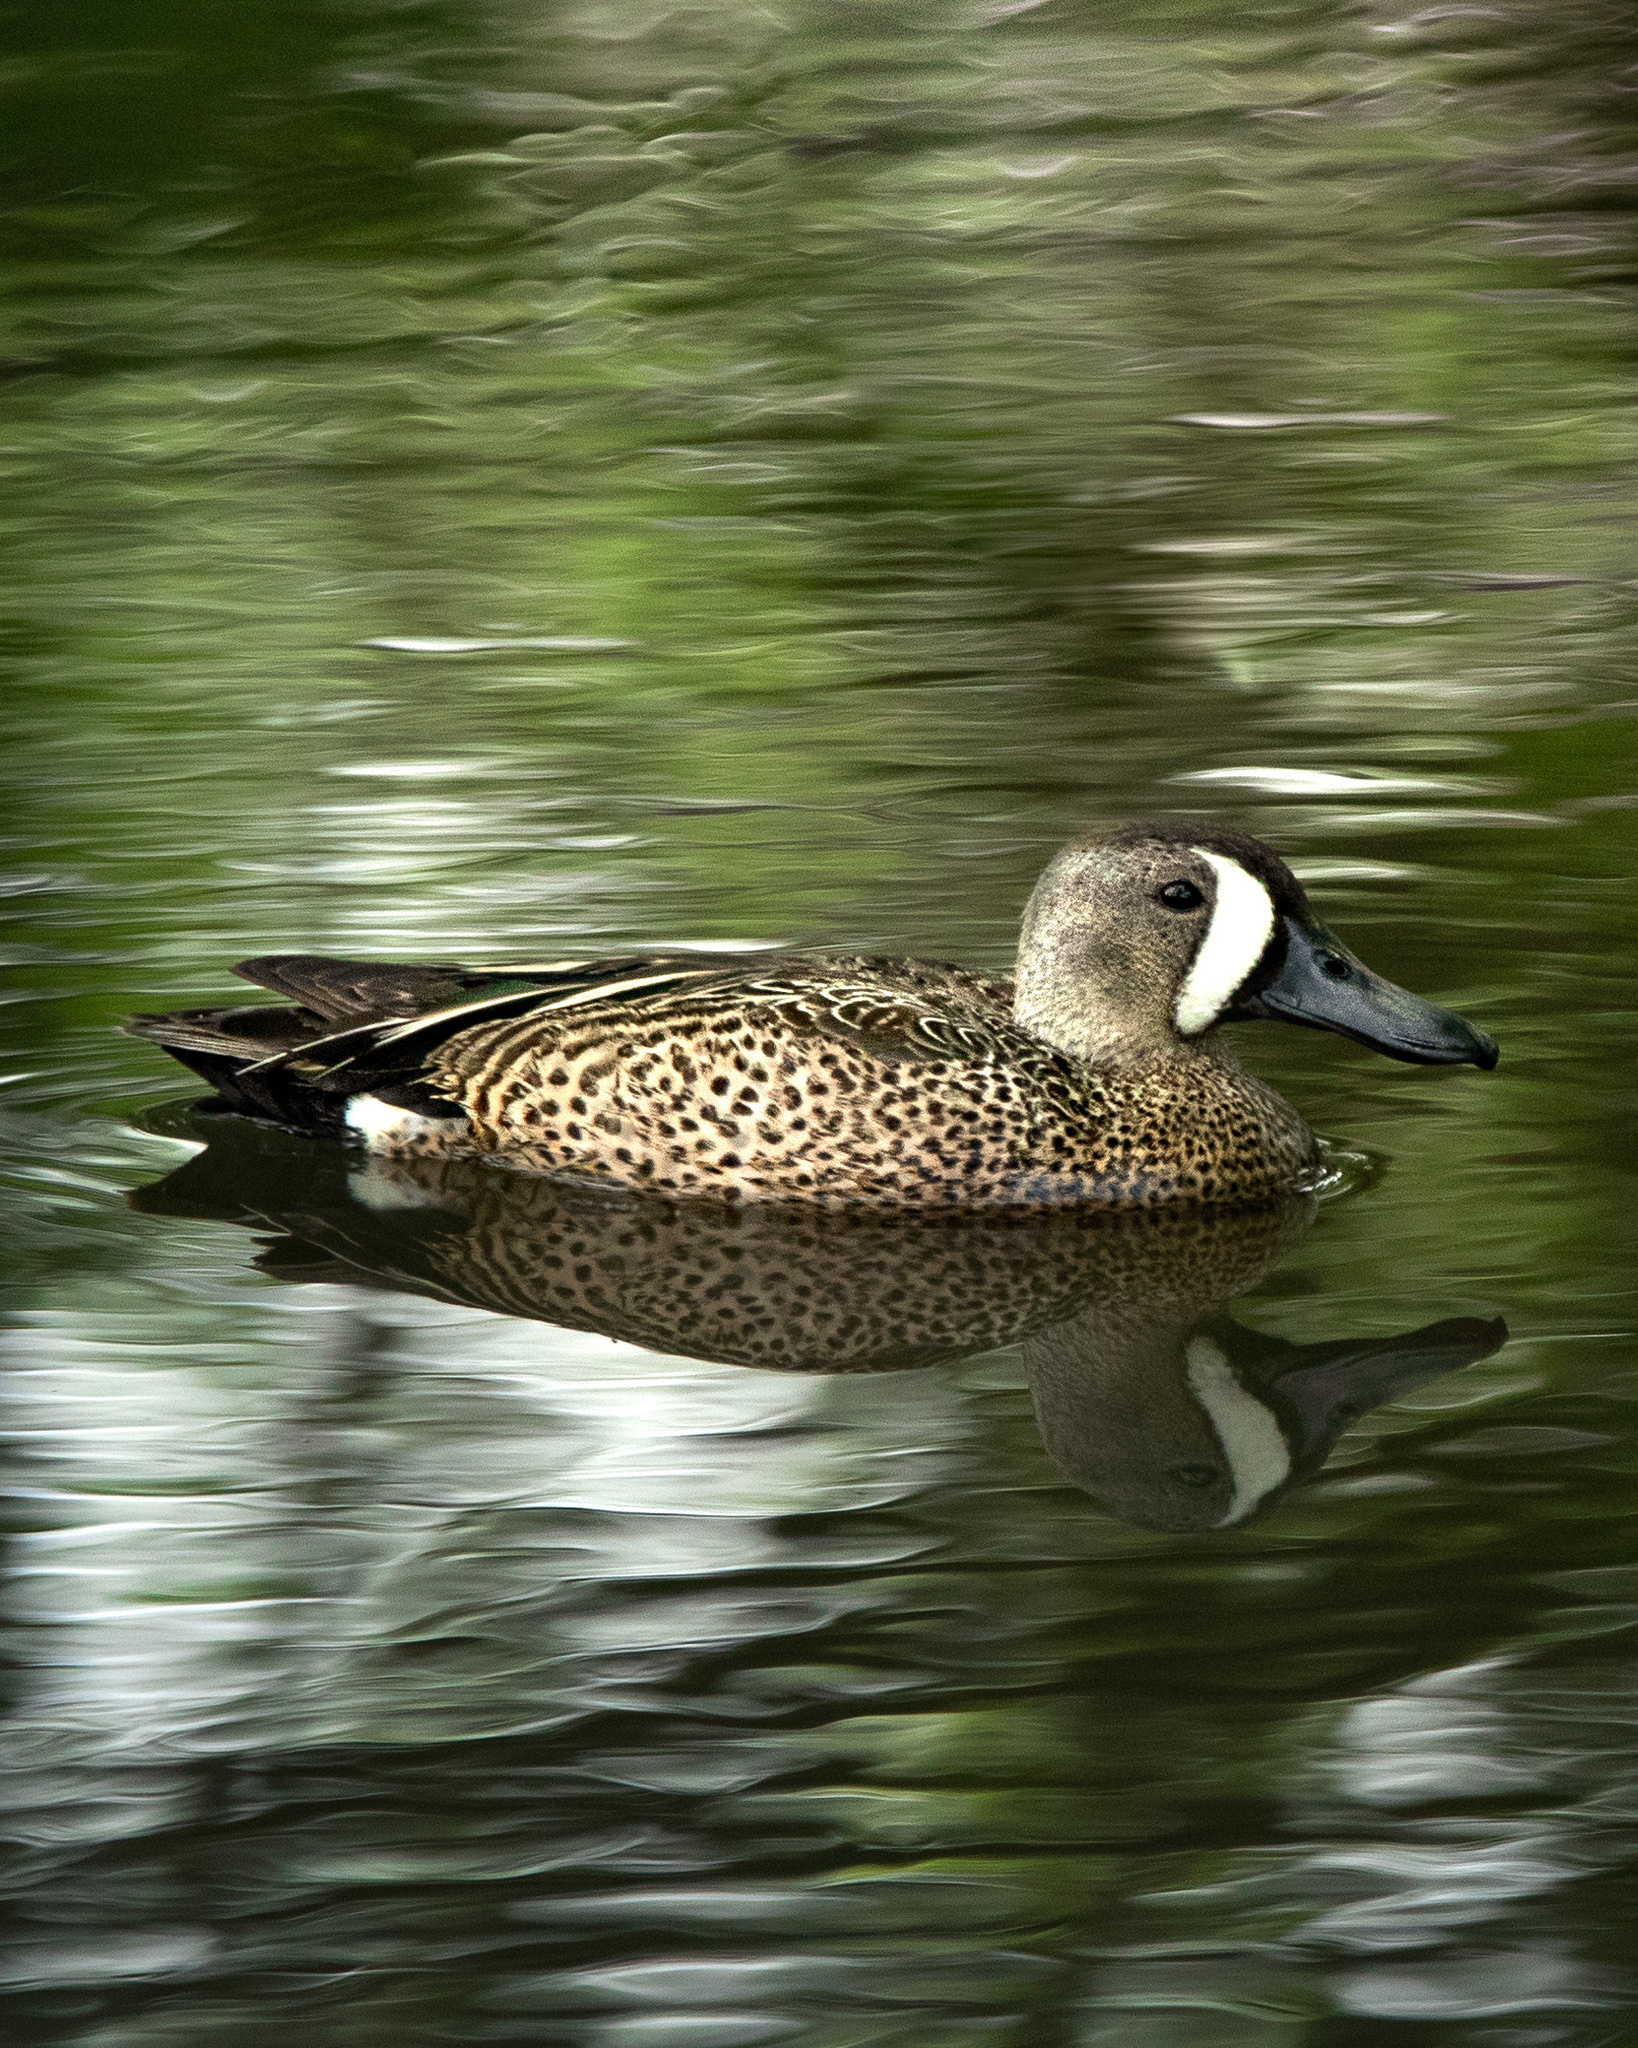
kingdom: Animalia
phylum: Chordata
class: Aves
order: Anseriformes
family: Anatidae
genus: Spatula
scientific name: Spatula discors
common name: Blue-winged teal
